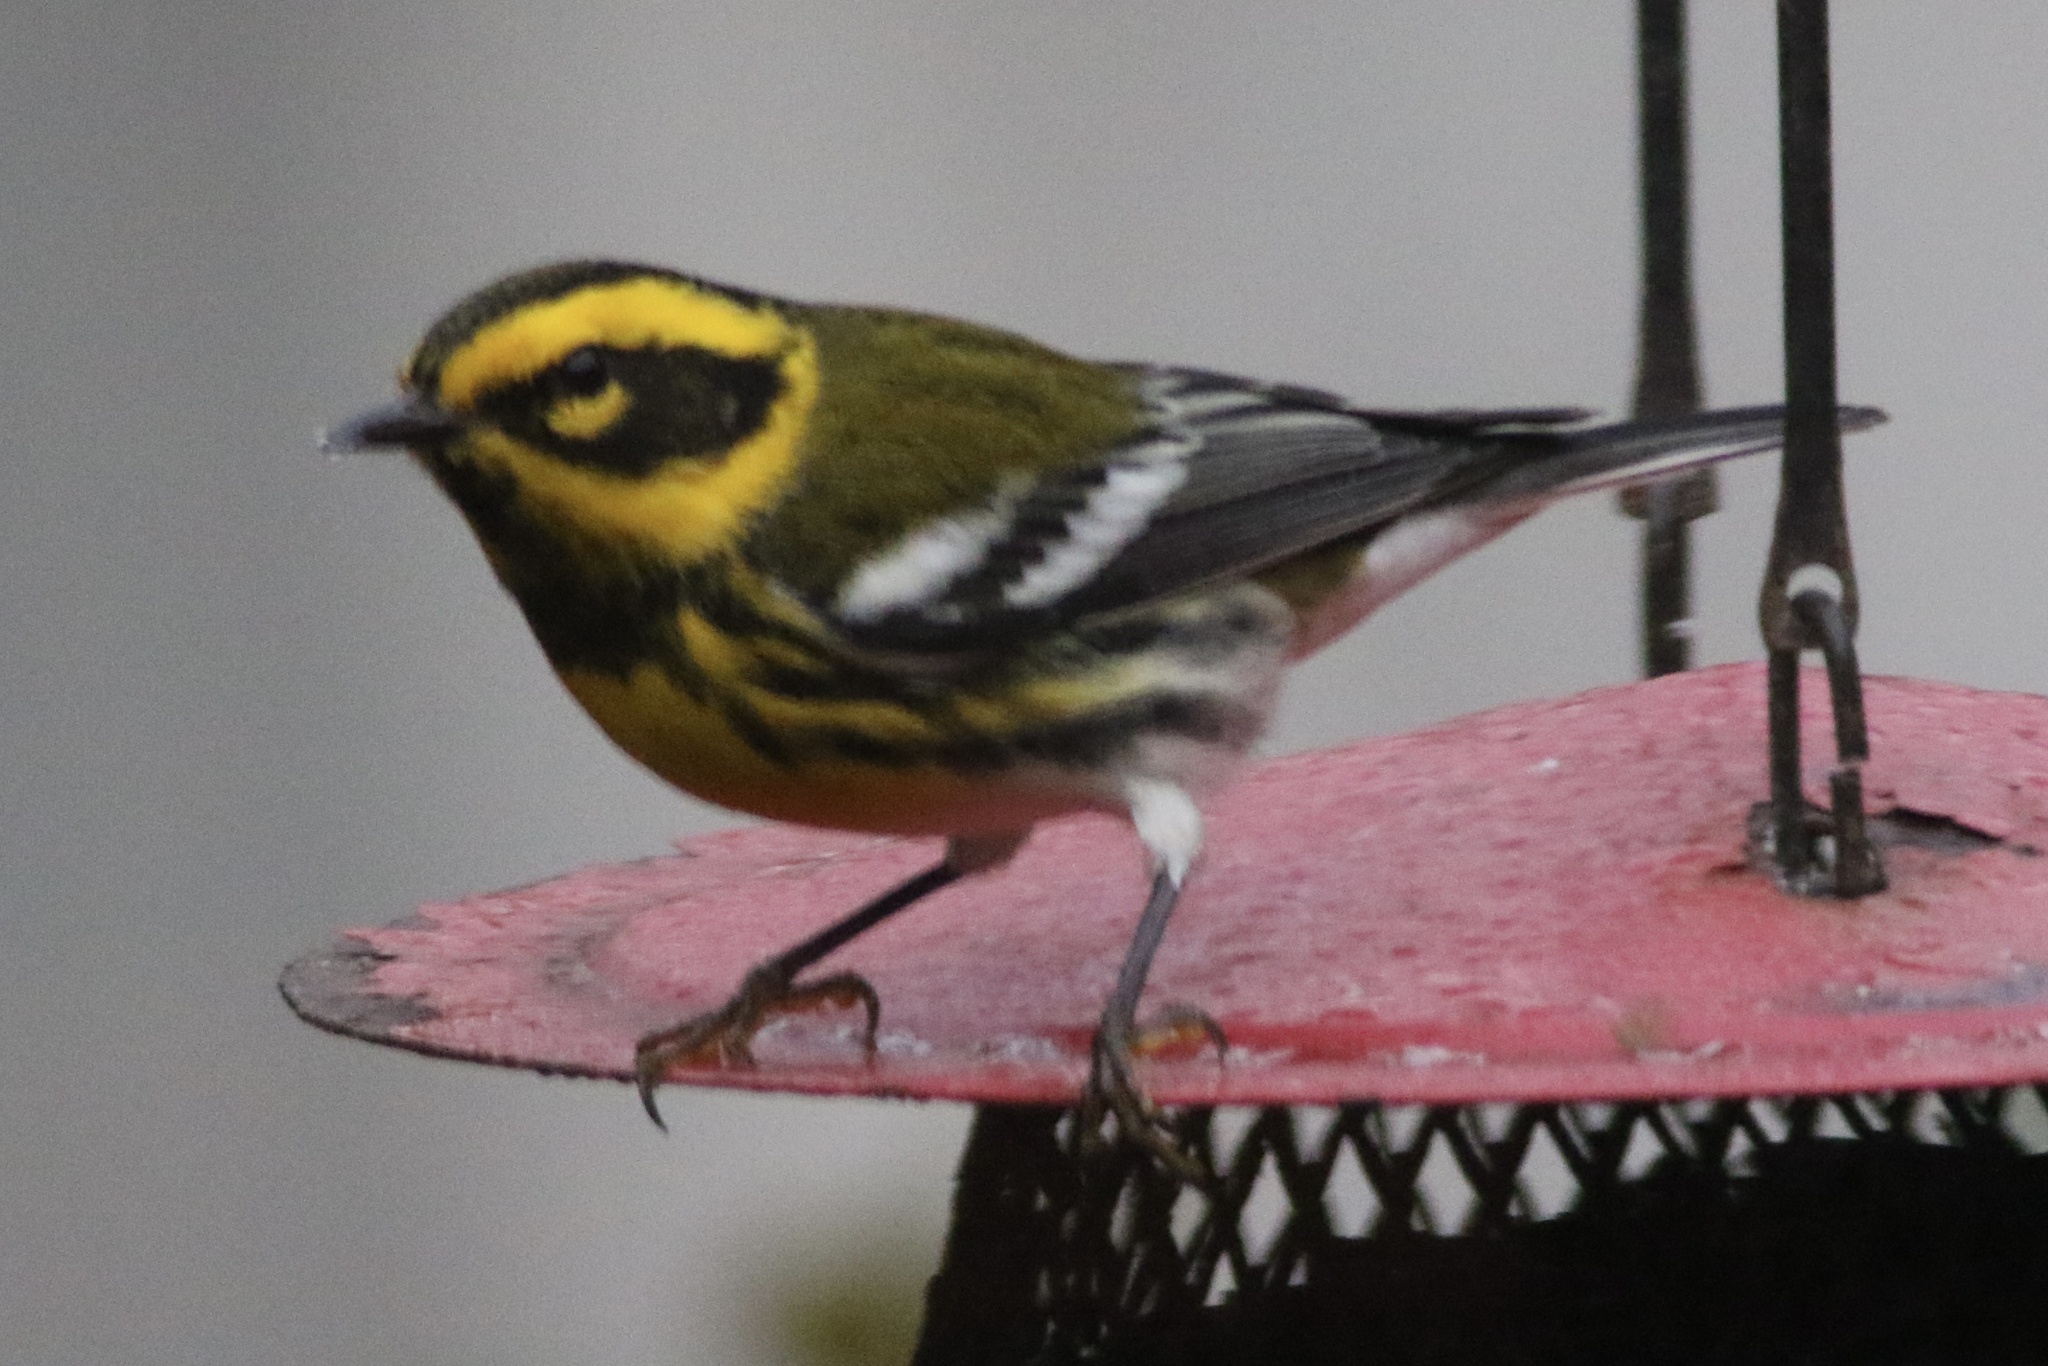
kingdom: Animalia
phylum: Chordata
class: Aves
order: Passeriformes
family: Parulidae
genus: Setophaga
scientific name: Setophaga townsendi
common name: Townsend's warbler
